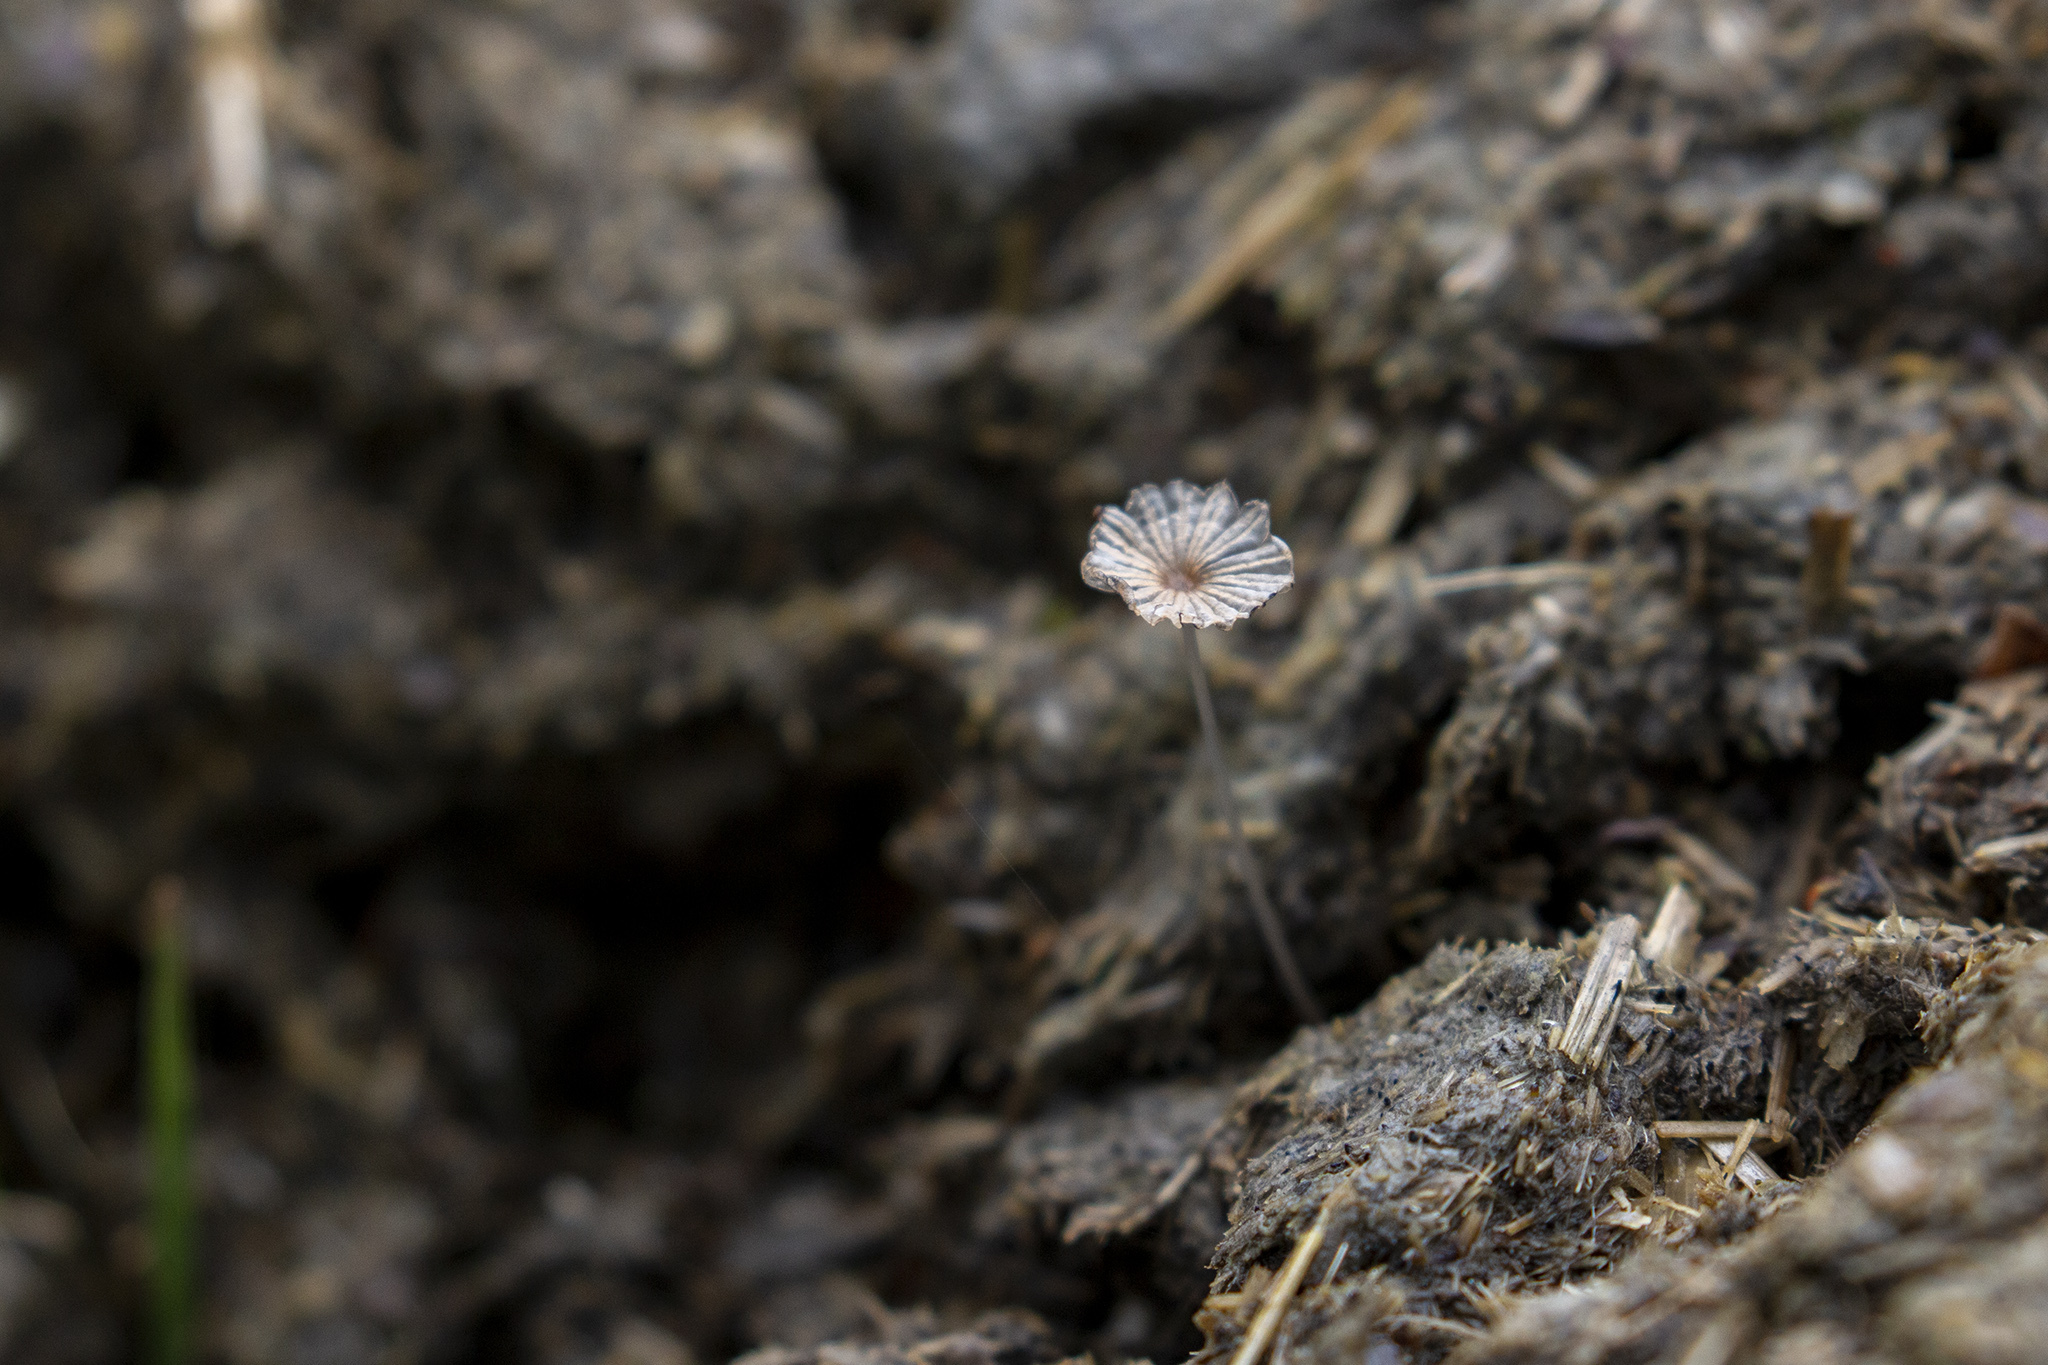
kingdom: Fungi
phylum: Basidiomycota
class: Agaricomycetes
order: Agaricales
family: Psathyrellaceae
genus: Parasola
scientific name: Parasola misera
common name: Least inkcap
